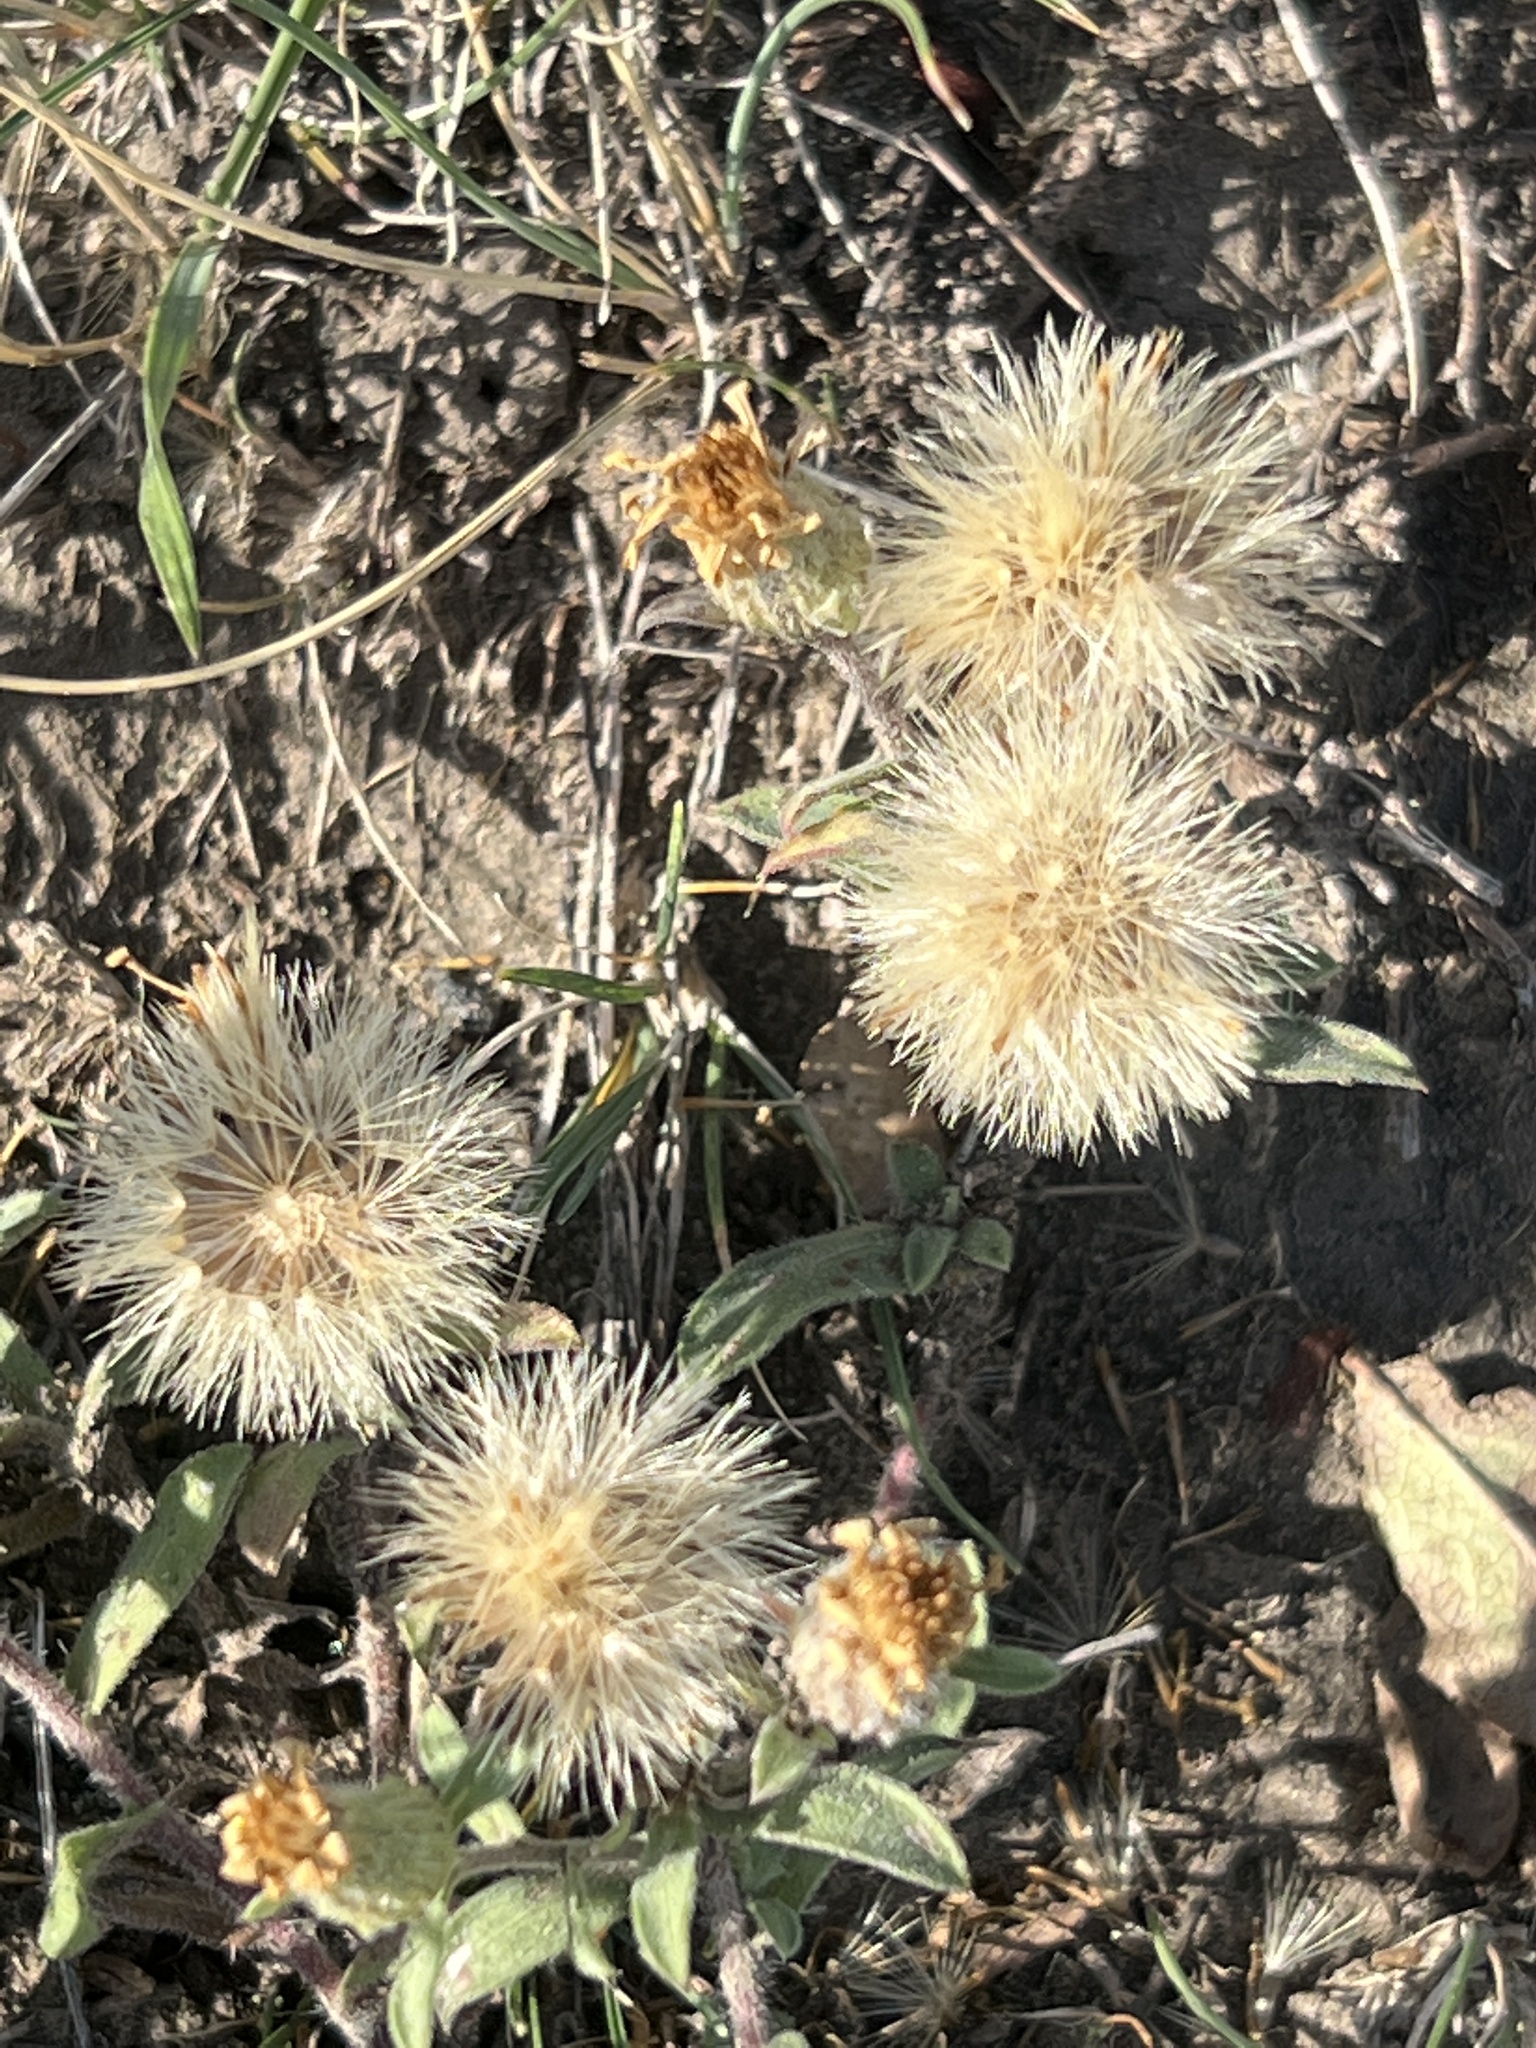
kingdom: Plantae
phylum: Tracheophyta
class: Magnoliopsida
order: Asterales
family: Asteraceae
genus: Heterotheca
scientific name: Heterotheca villosa
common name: Hairy false goldenaster
